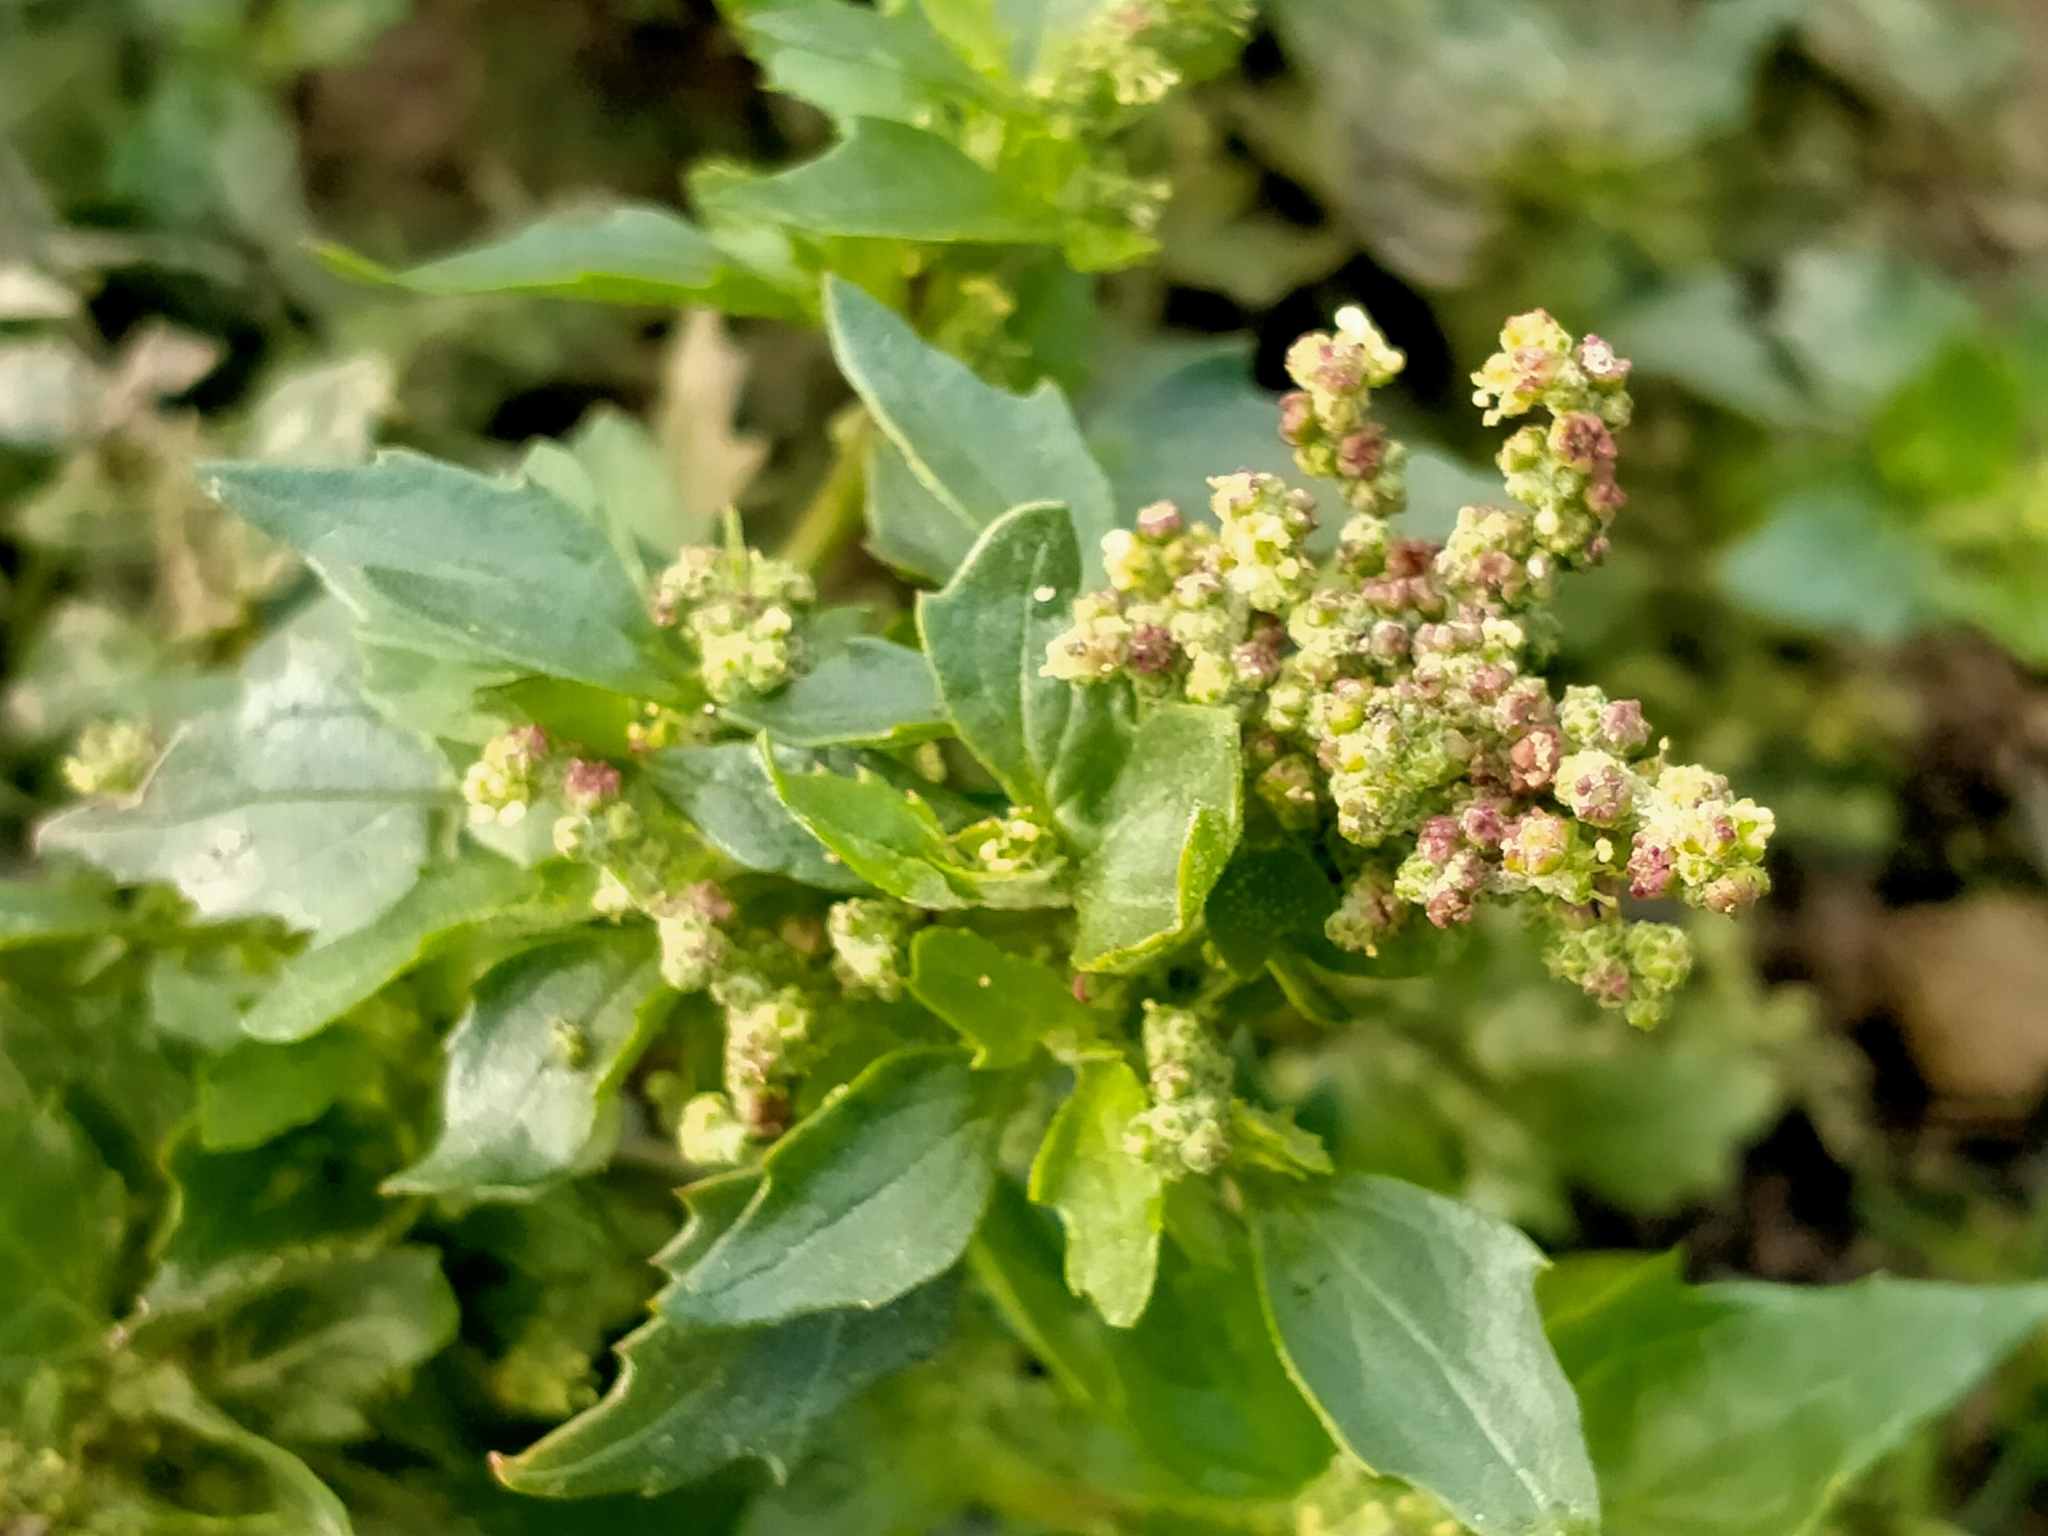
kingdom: Plantae
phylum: Tracheophyta
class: Magnoliopsida
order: Caryophyllales
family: Amaranthaceae
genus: Chenopodiastrum
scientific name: Chenopodiastrum murale
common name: Sowbane
